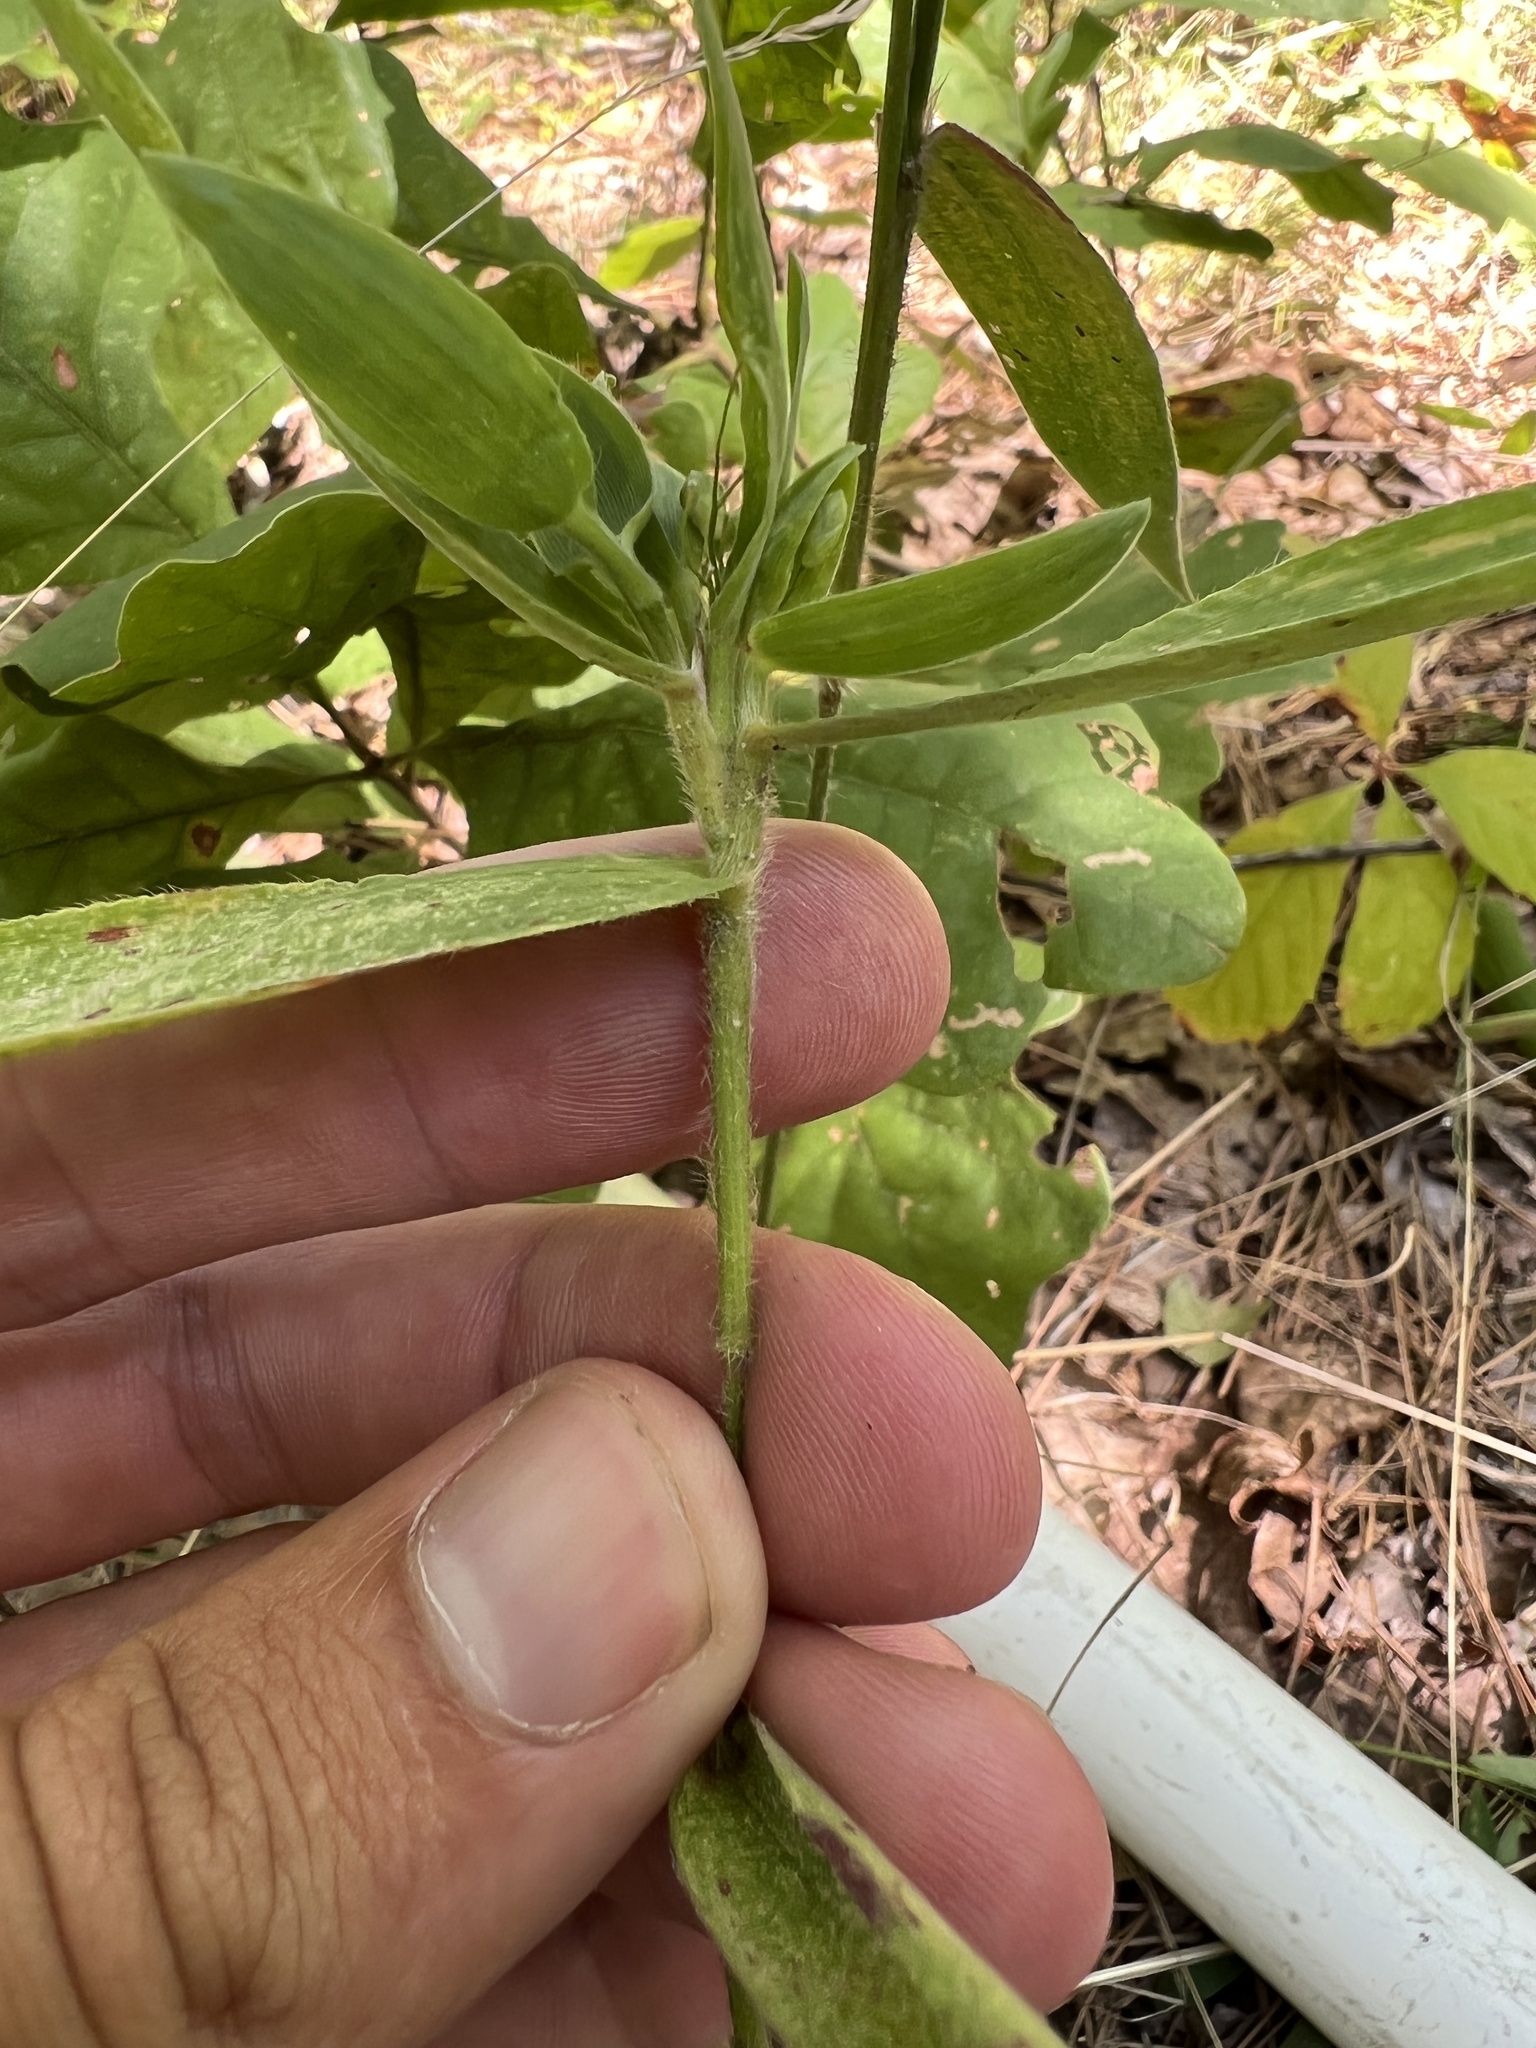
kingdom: Plantae
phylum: Tracheophyta
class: Liliopsida
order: Poales
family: Poaceae
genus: Dichanthelium
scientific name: Dichanthelium ravenelii
